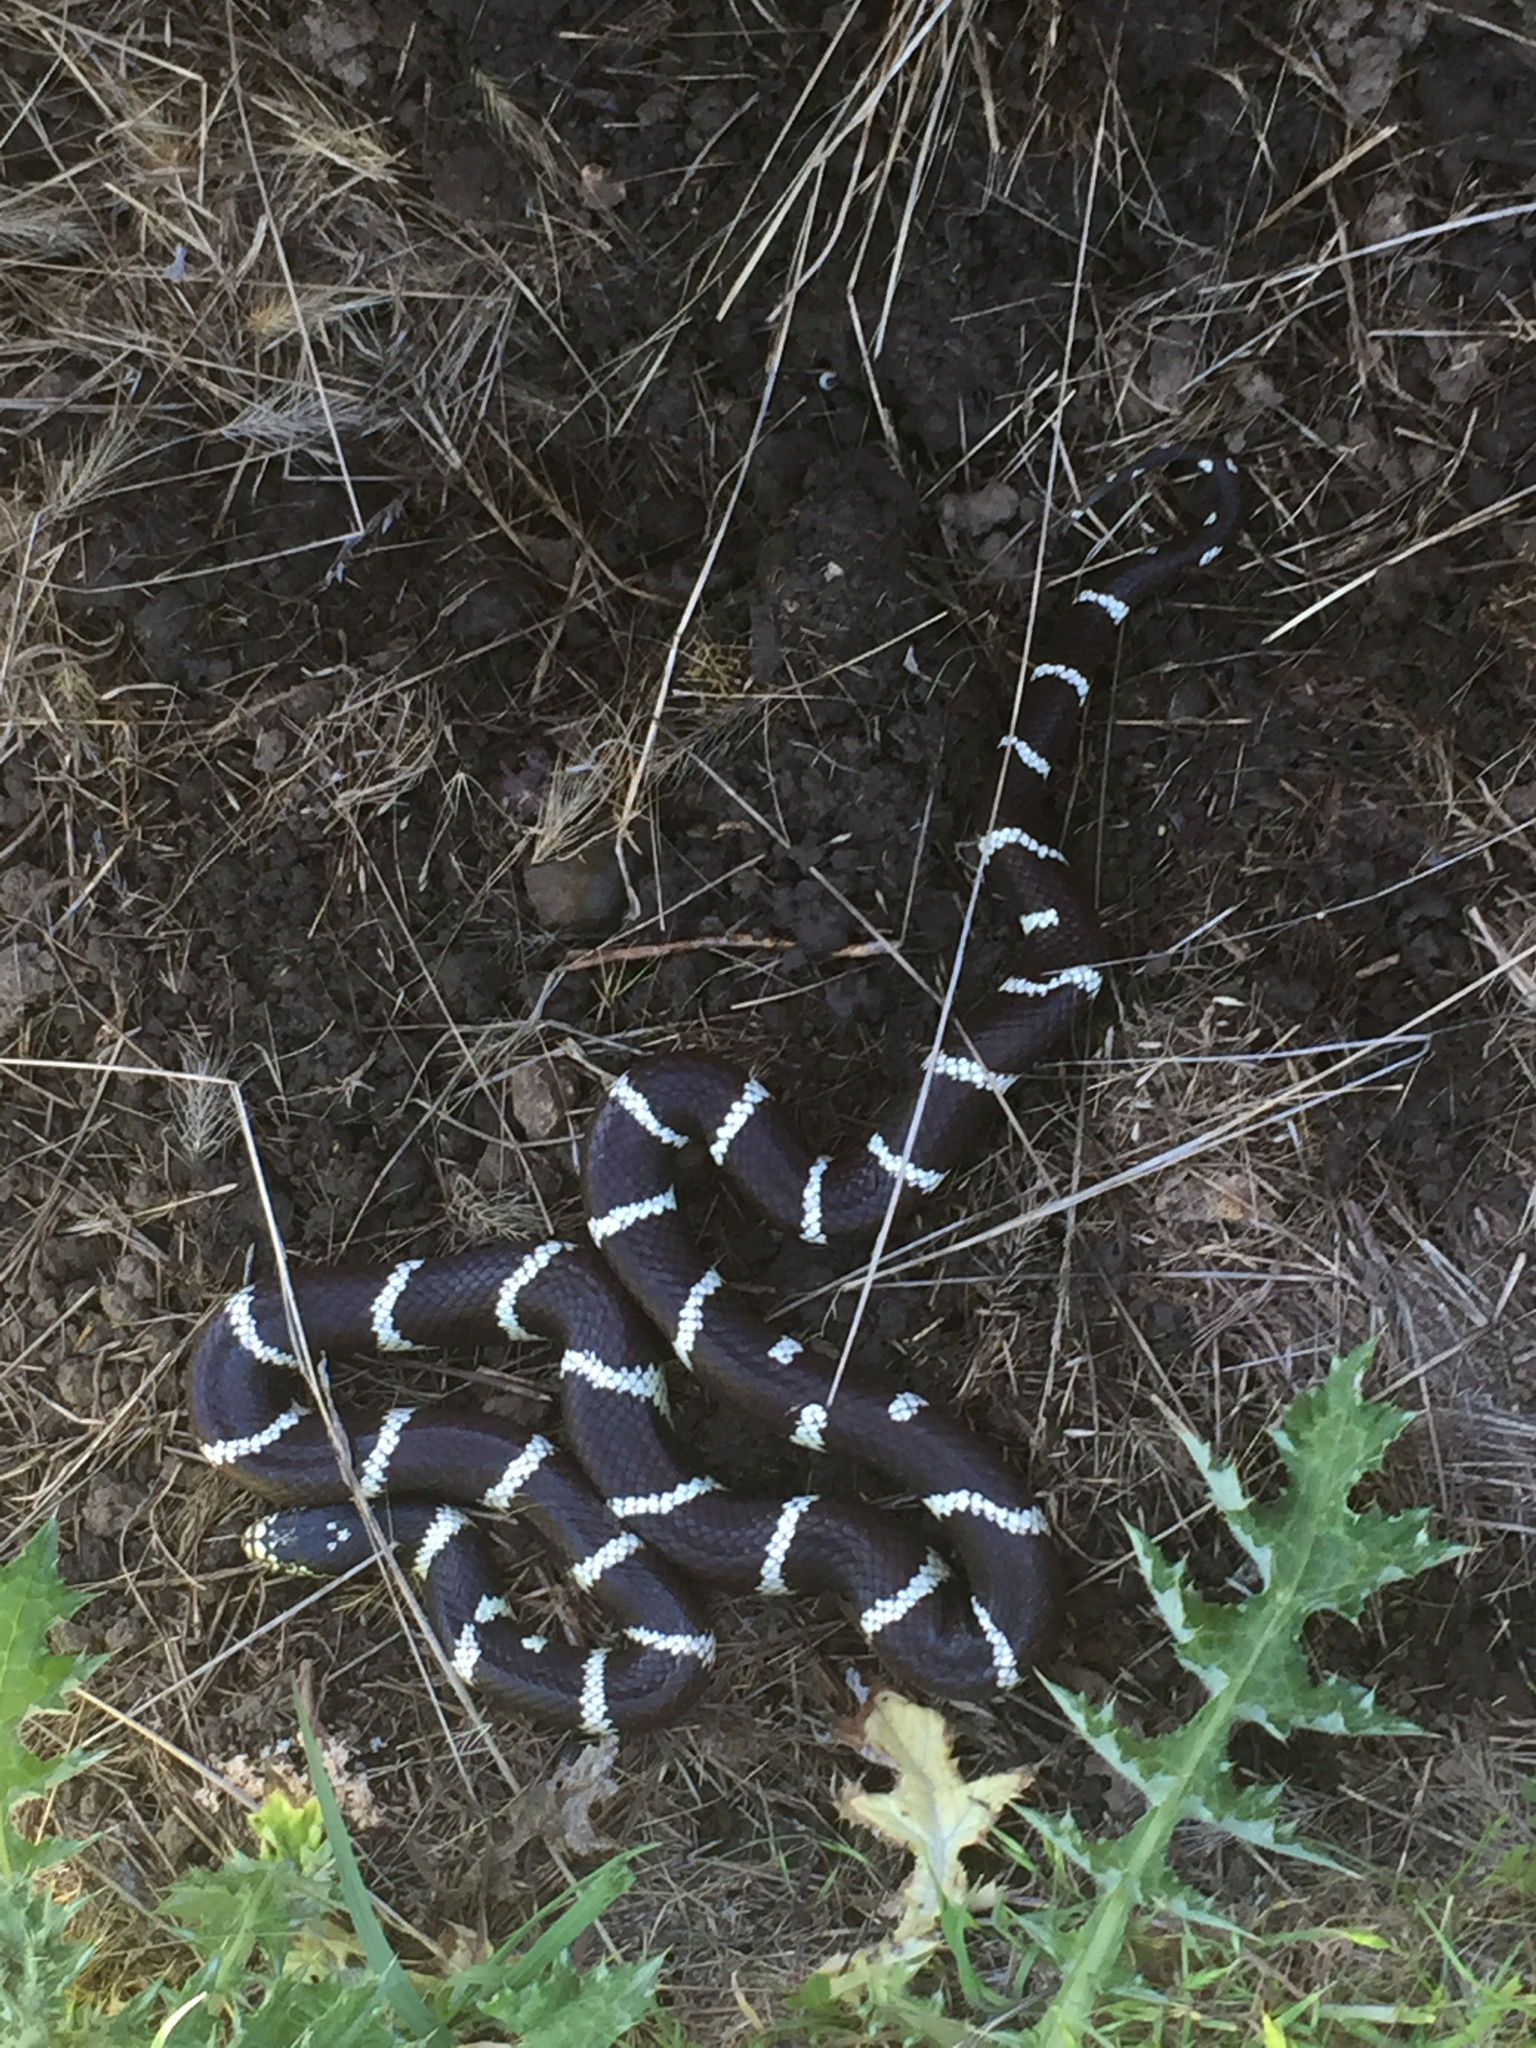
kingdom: Animalia
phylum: Chordata
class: Squamata
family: Colubridae
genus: Lampropeltis
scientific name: Lampropeltis californiae
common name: California kingsnake
